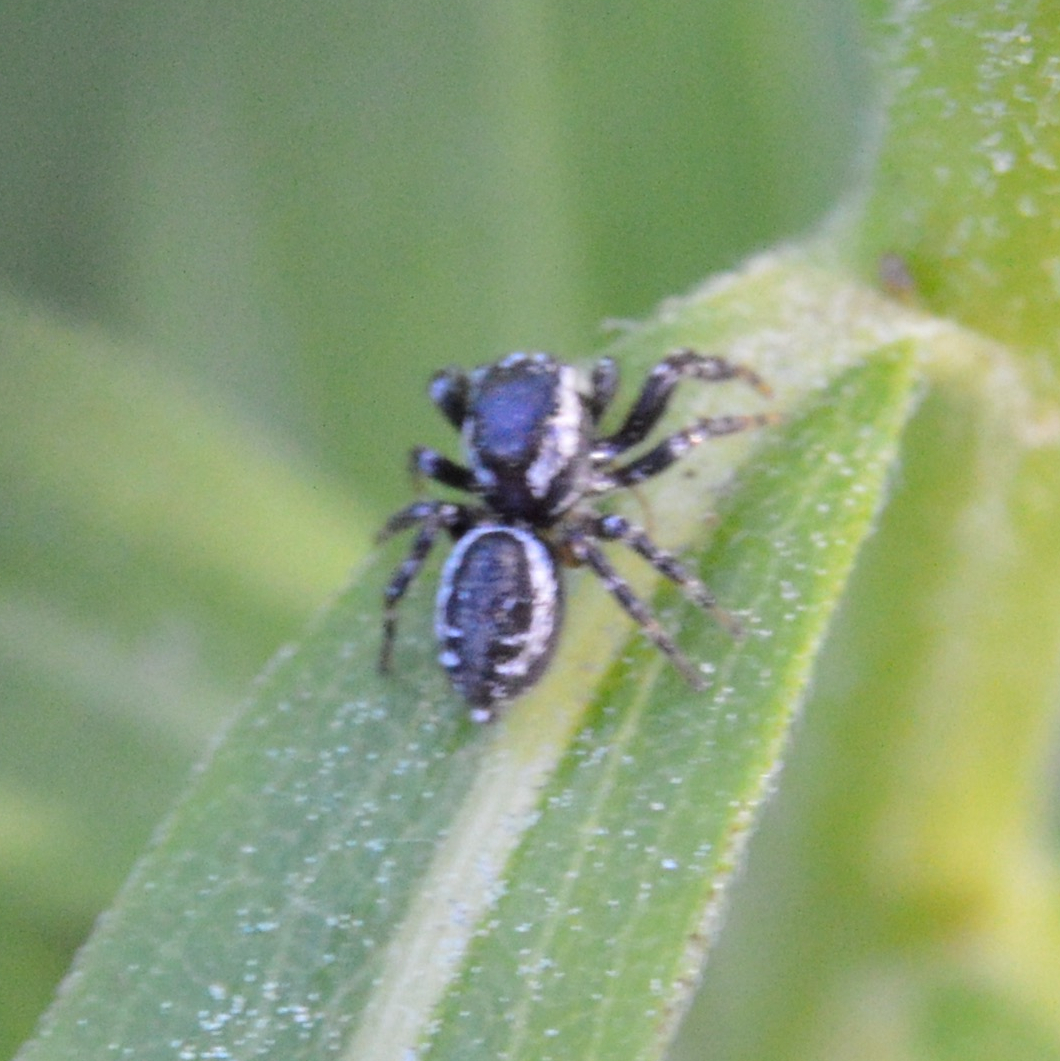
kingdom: Animalia
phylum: Arthropoda
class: Arachnida
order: Araneae
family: Salticidae
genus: Pelegrina
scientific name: Pelegrina
